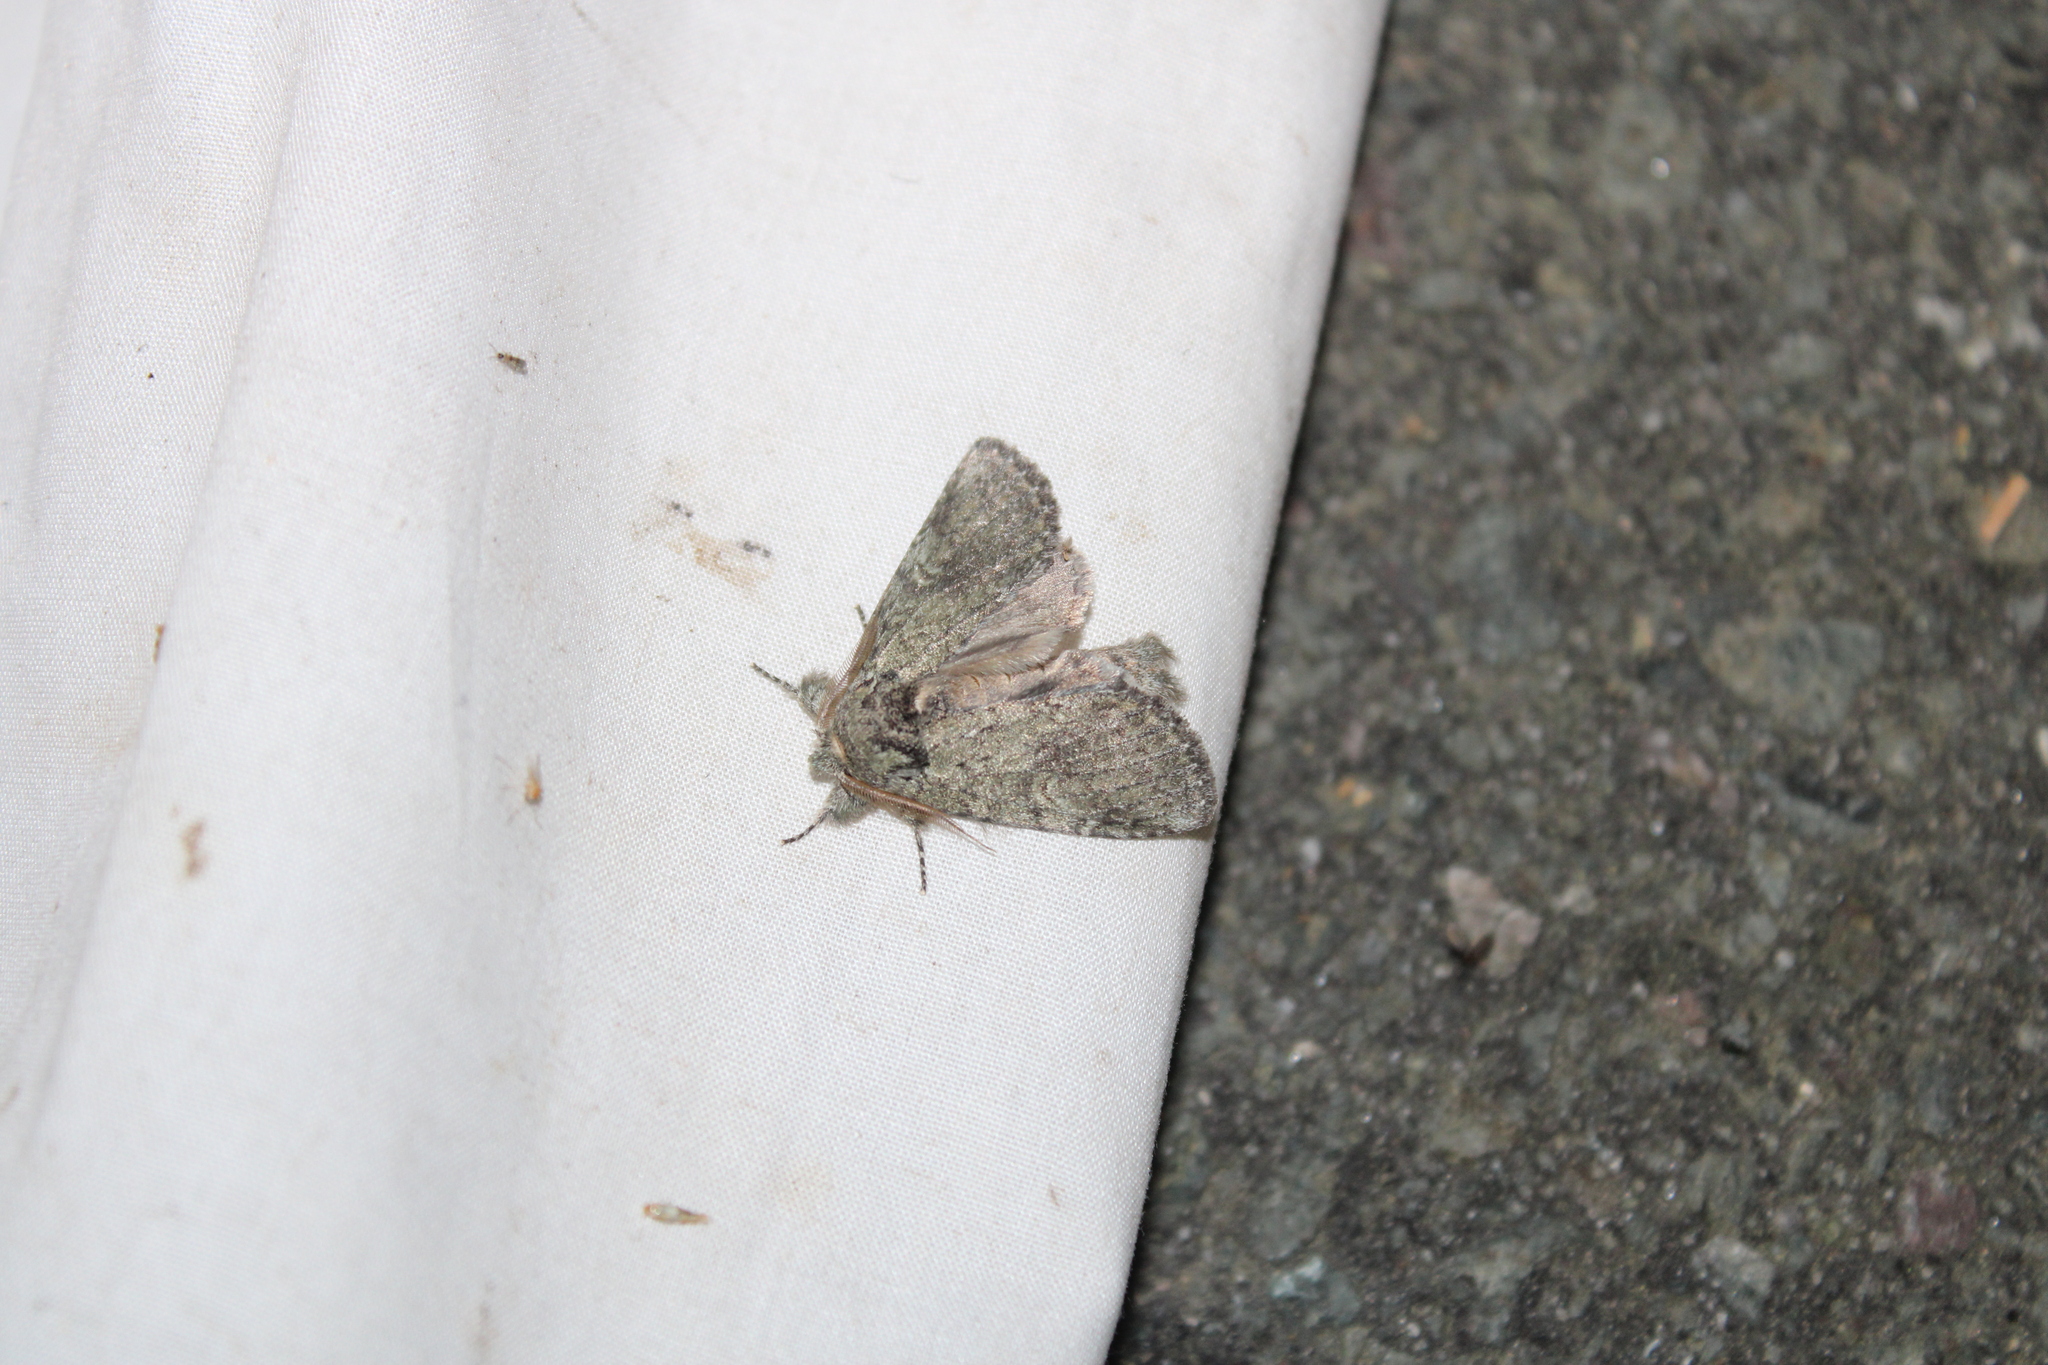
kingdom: Animalia
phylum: Arthropoda
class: Insecta
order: Lepidoptera
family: Notodontidae
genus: Disphragis
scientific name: Disphragis Cecrita guttivitta
